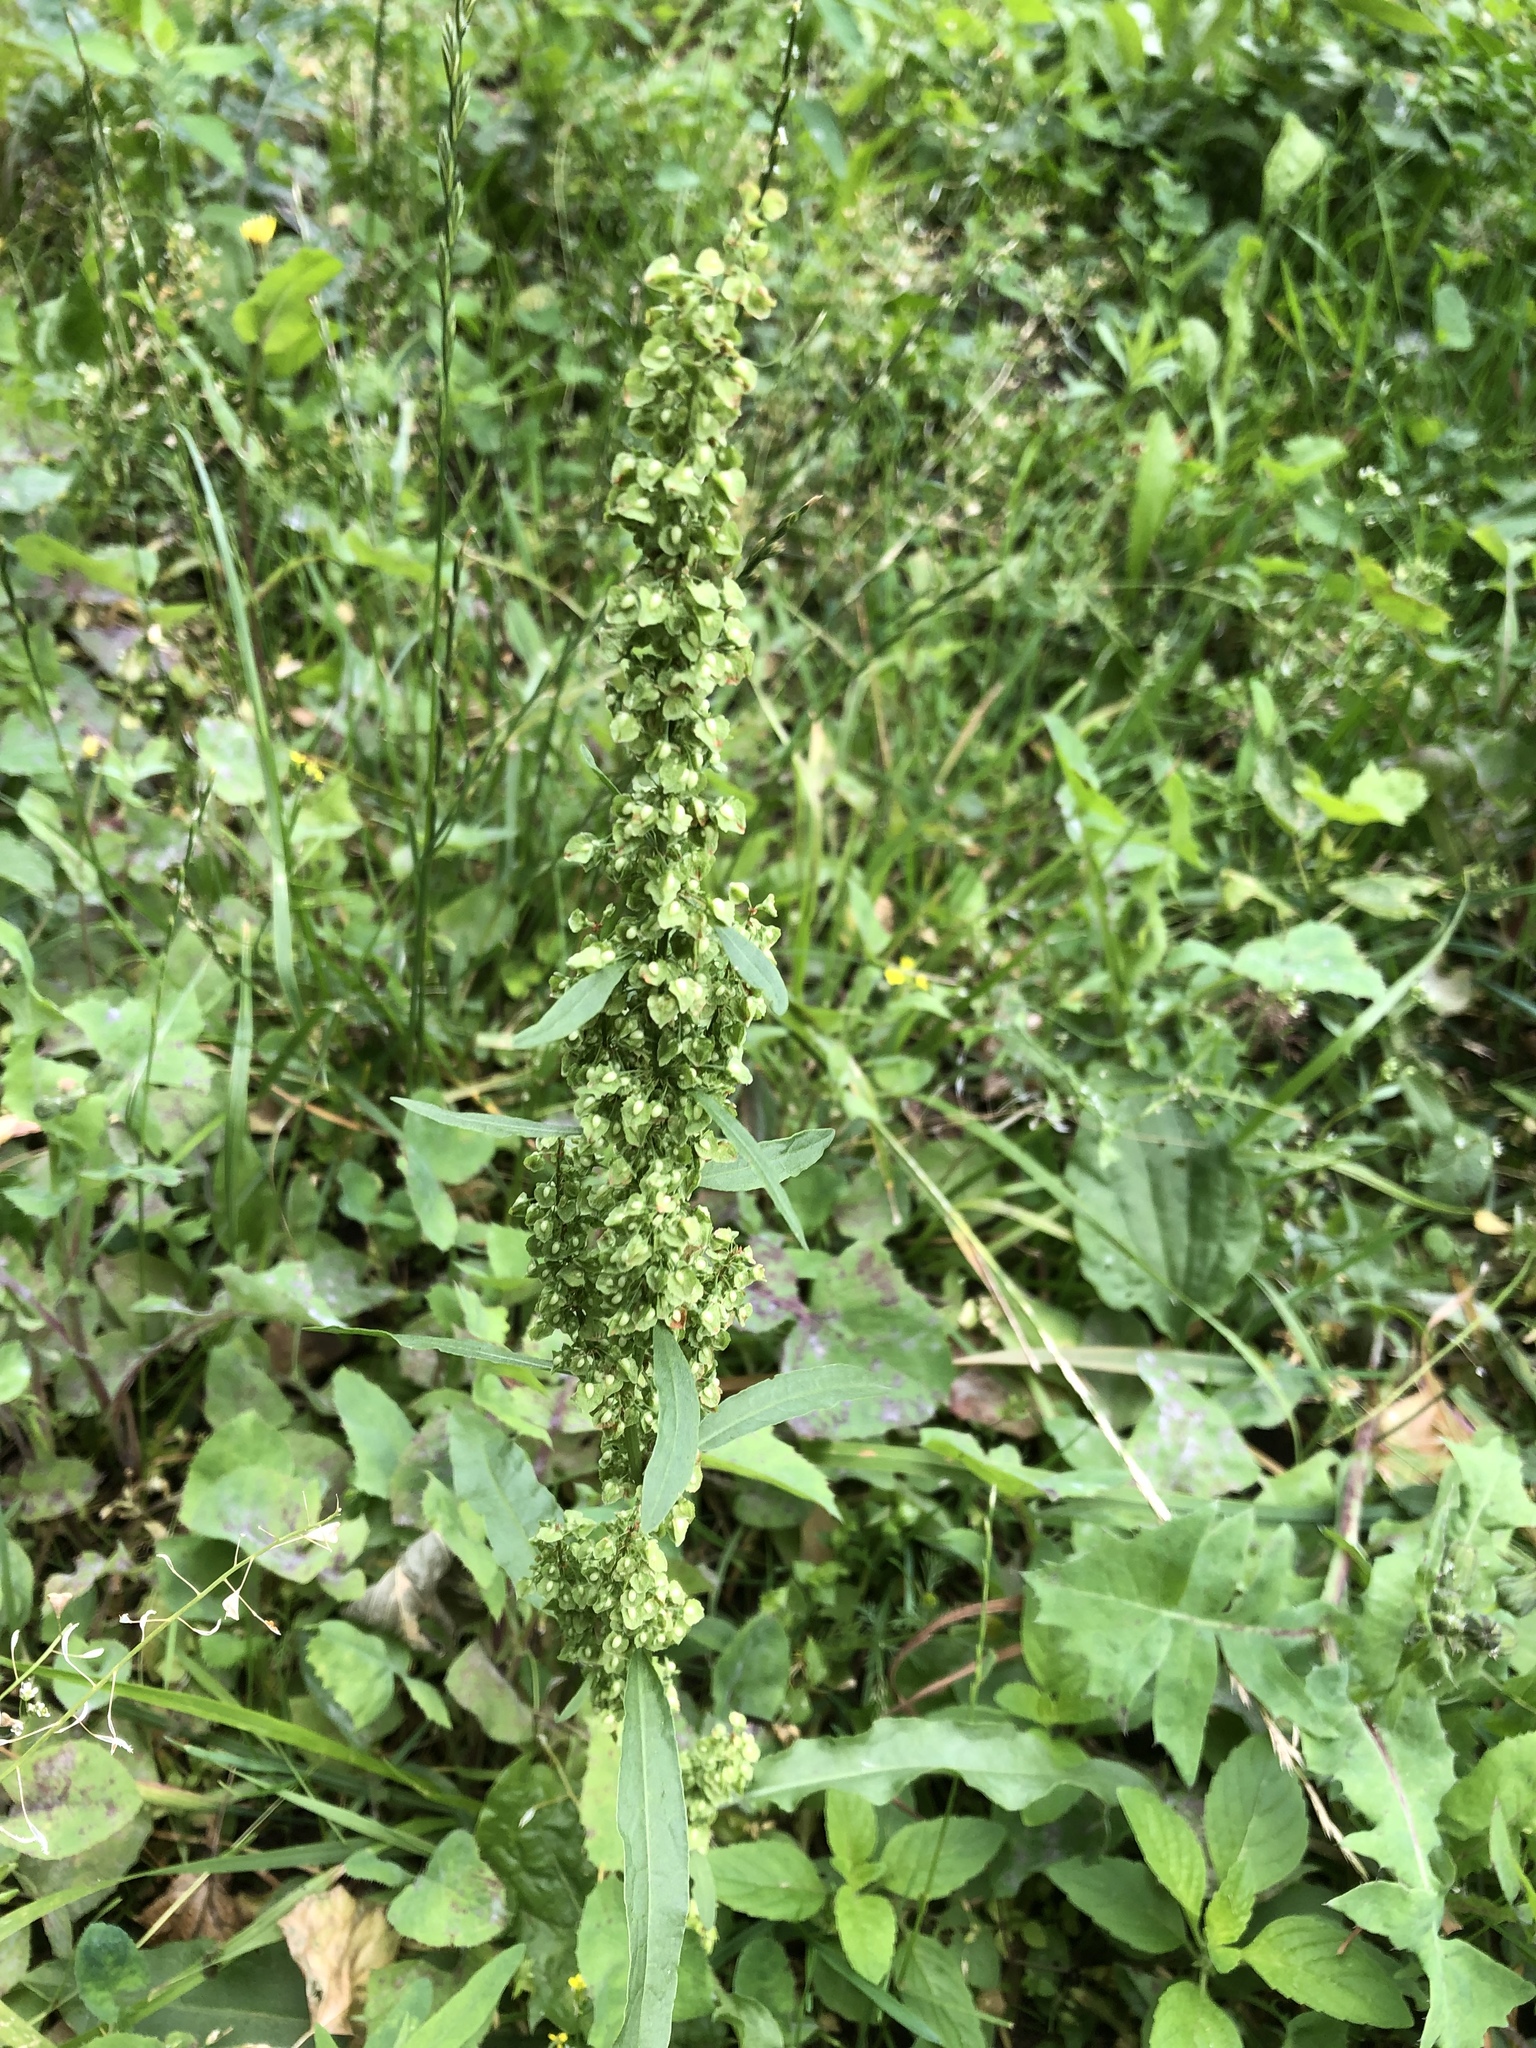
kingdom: Plantae
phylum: Tracheophyta
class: Magnoliopsida
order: Caryophyllales
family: Polygonaceae
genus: Rumex
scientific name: Rumex crispus
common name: Curled dock
